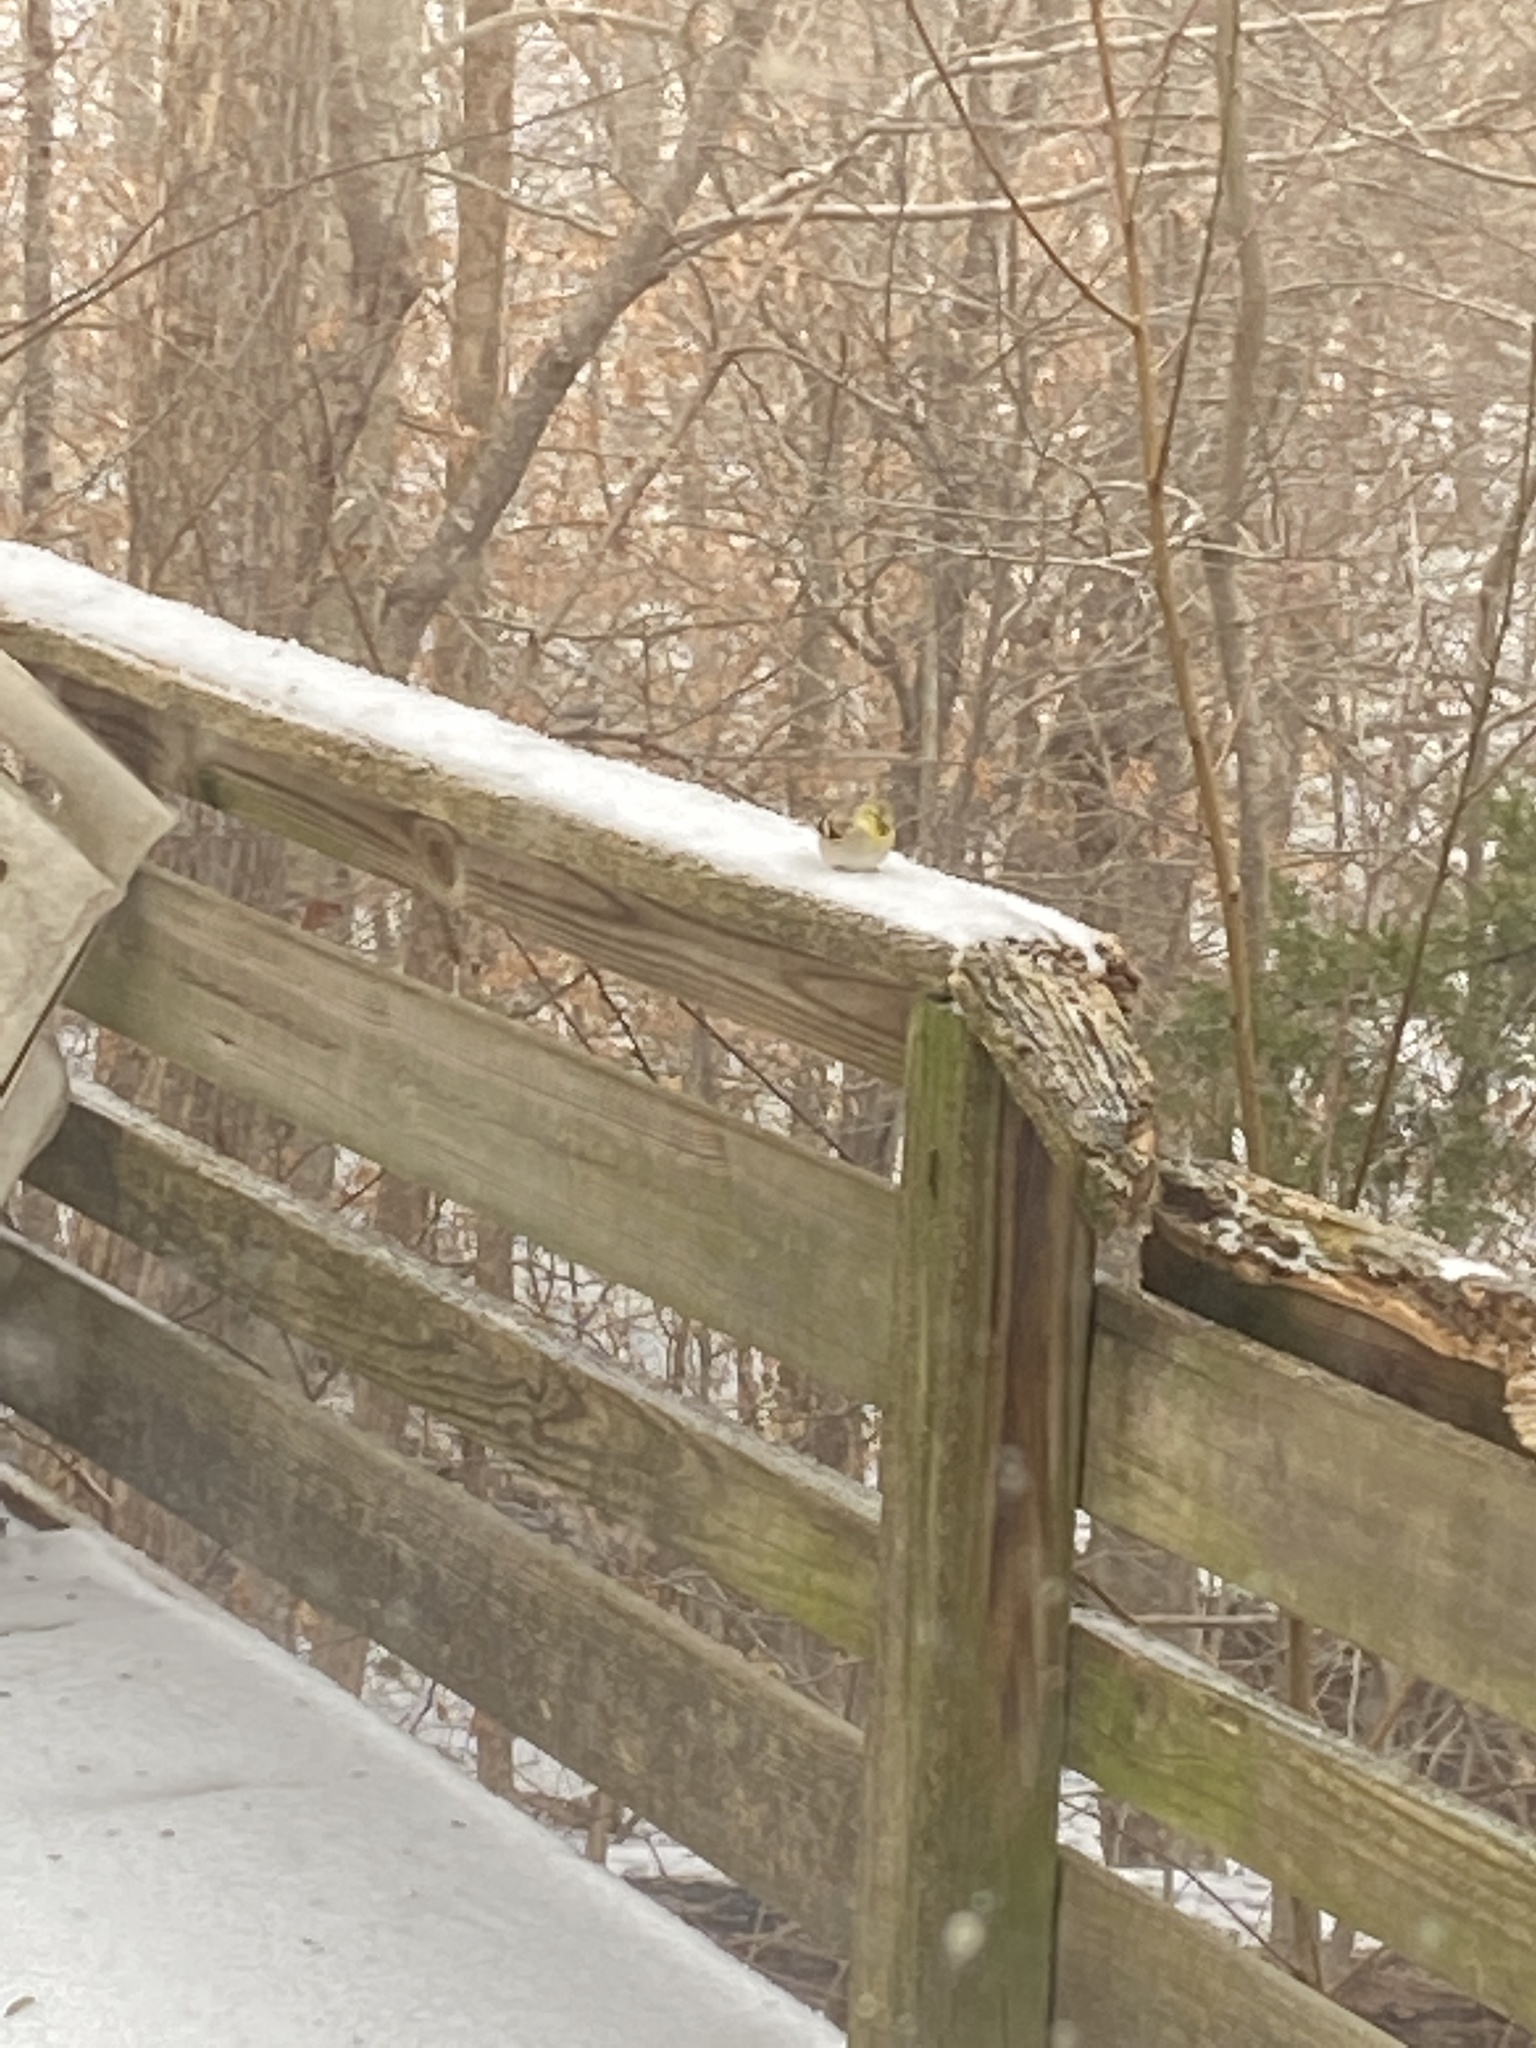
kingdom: Animalia
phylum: Chordata
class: Aves
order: Passeriformes
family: Fringillidae
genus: Spinus
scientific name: Spinus tristis
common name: American goldfinch
